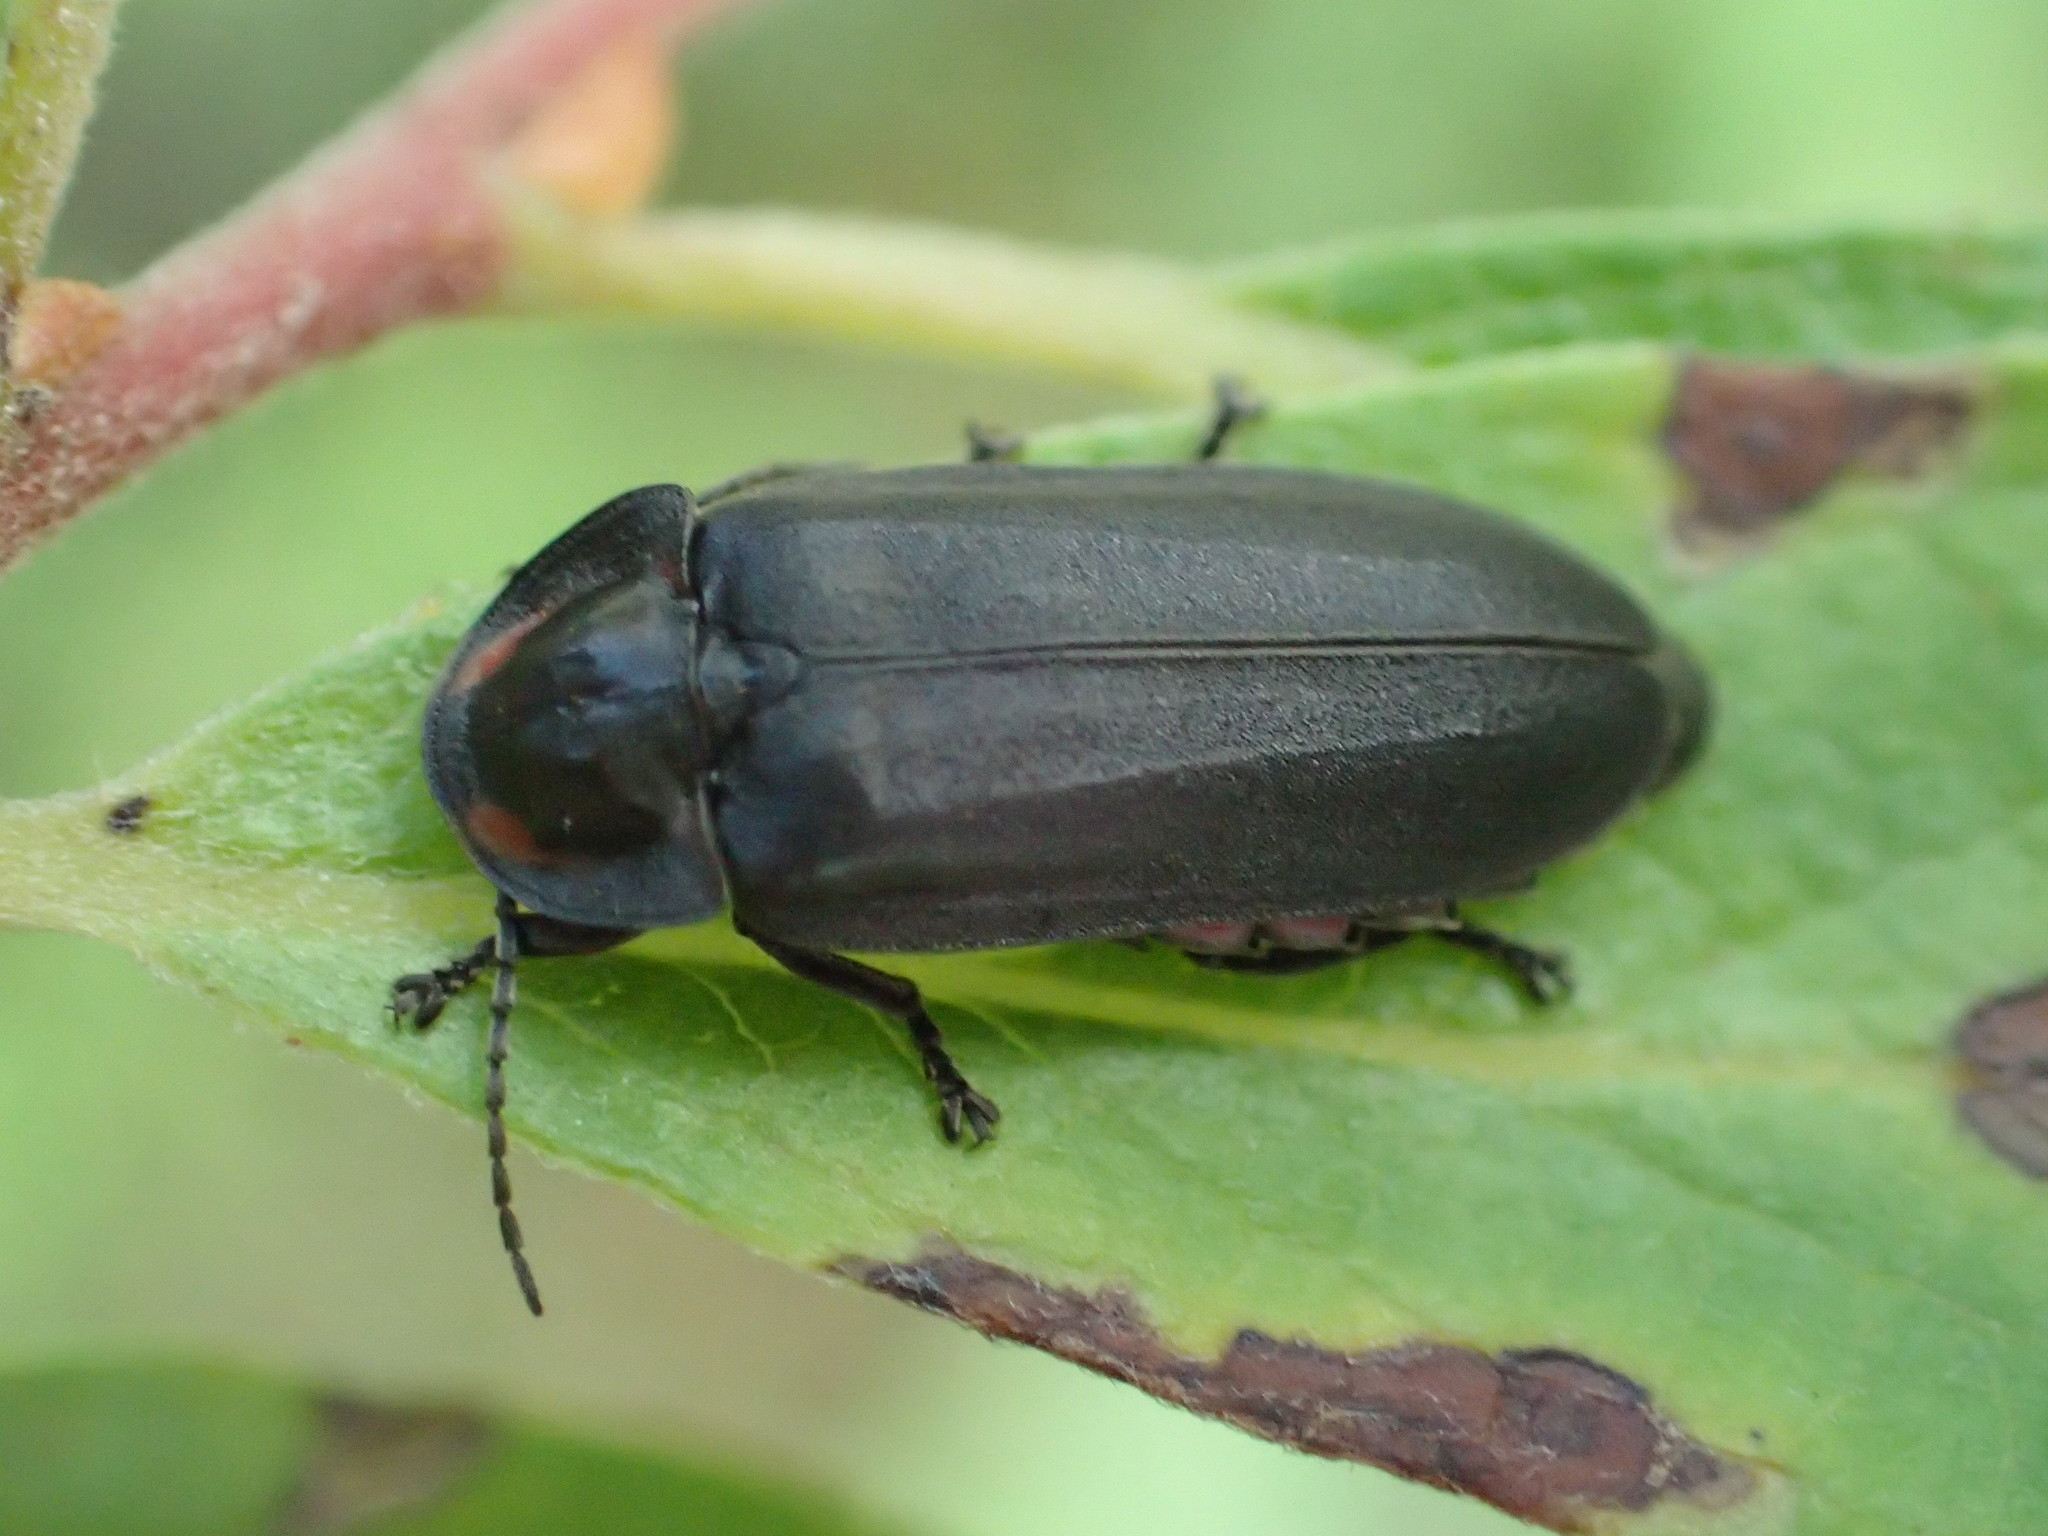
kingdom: Animalia
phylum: Arthropoda
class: Insecta
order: Coleoptera
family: Lampyridae
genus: Photinus
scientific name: Photinus corrusca
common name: Winter firefly
